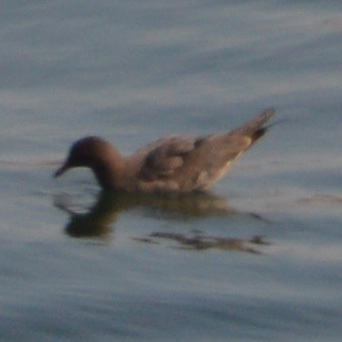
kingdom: Animalia
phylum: Chordata
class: Aves
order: Charadriiformes
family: Laridae
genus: Larus
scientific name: Larus heermanni
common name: Heermann's gull
